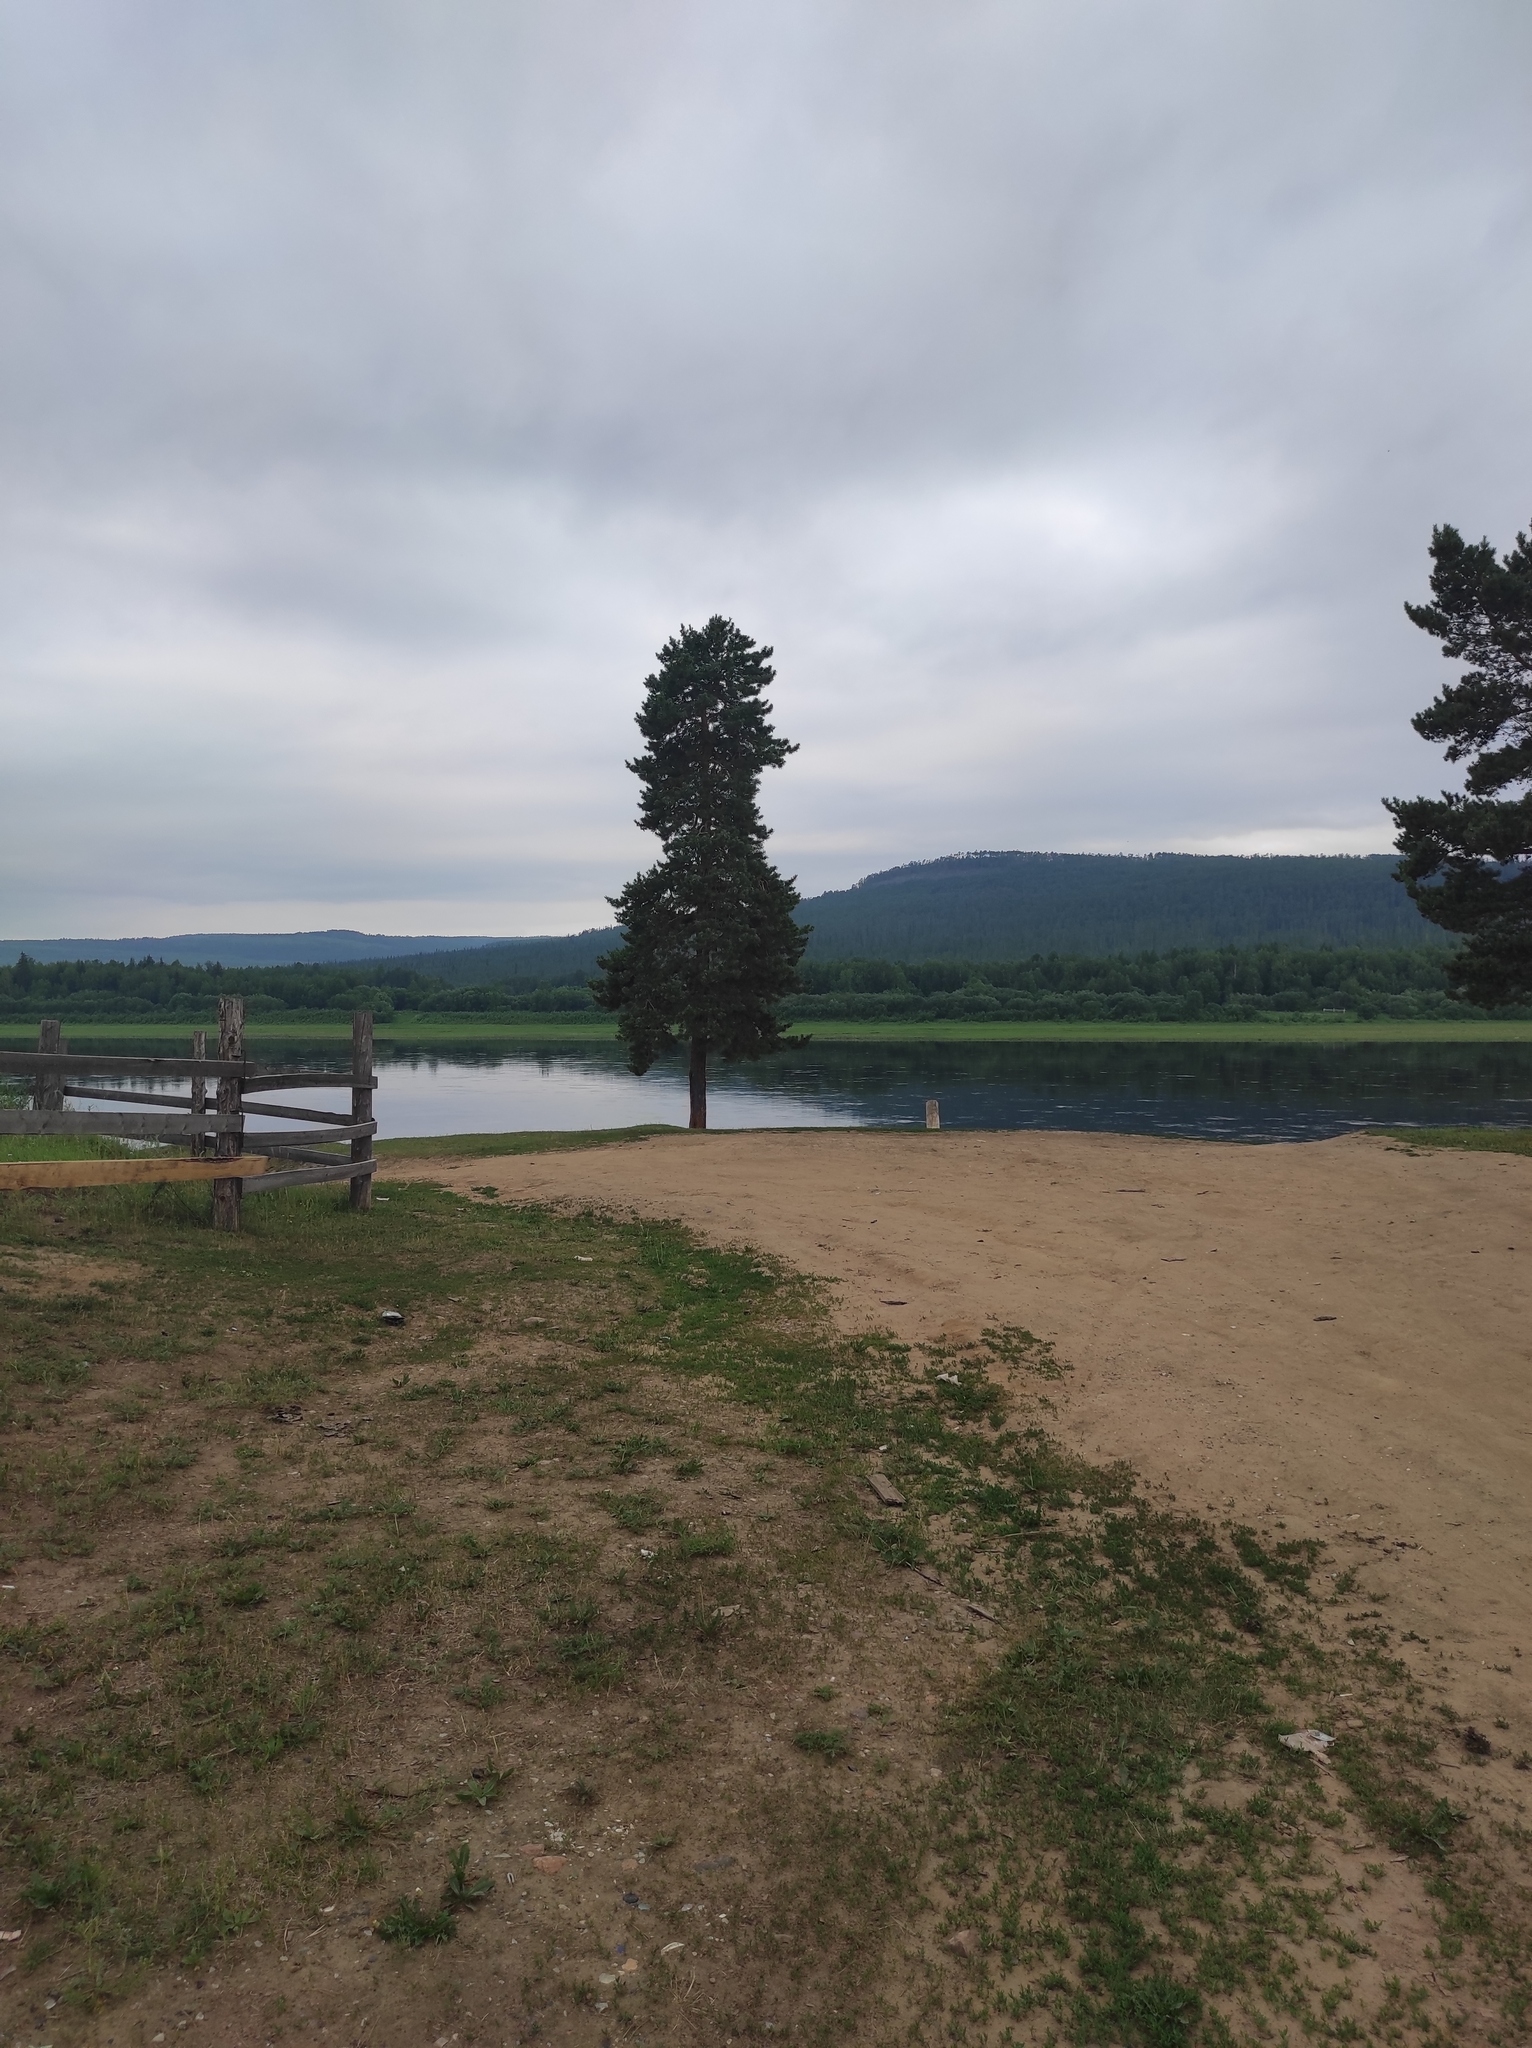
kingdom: Plantae
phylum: Tracheophyta
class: Pinopsida
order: Pinales
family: Pinaceae
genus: Pinus
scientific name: Pinus sylvestris
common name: Scots pine
